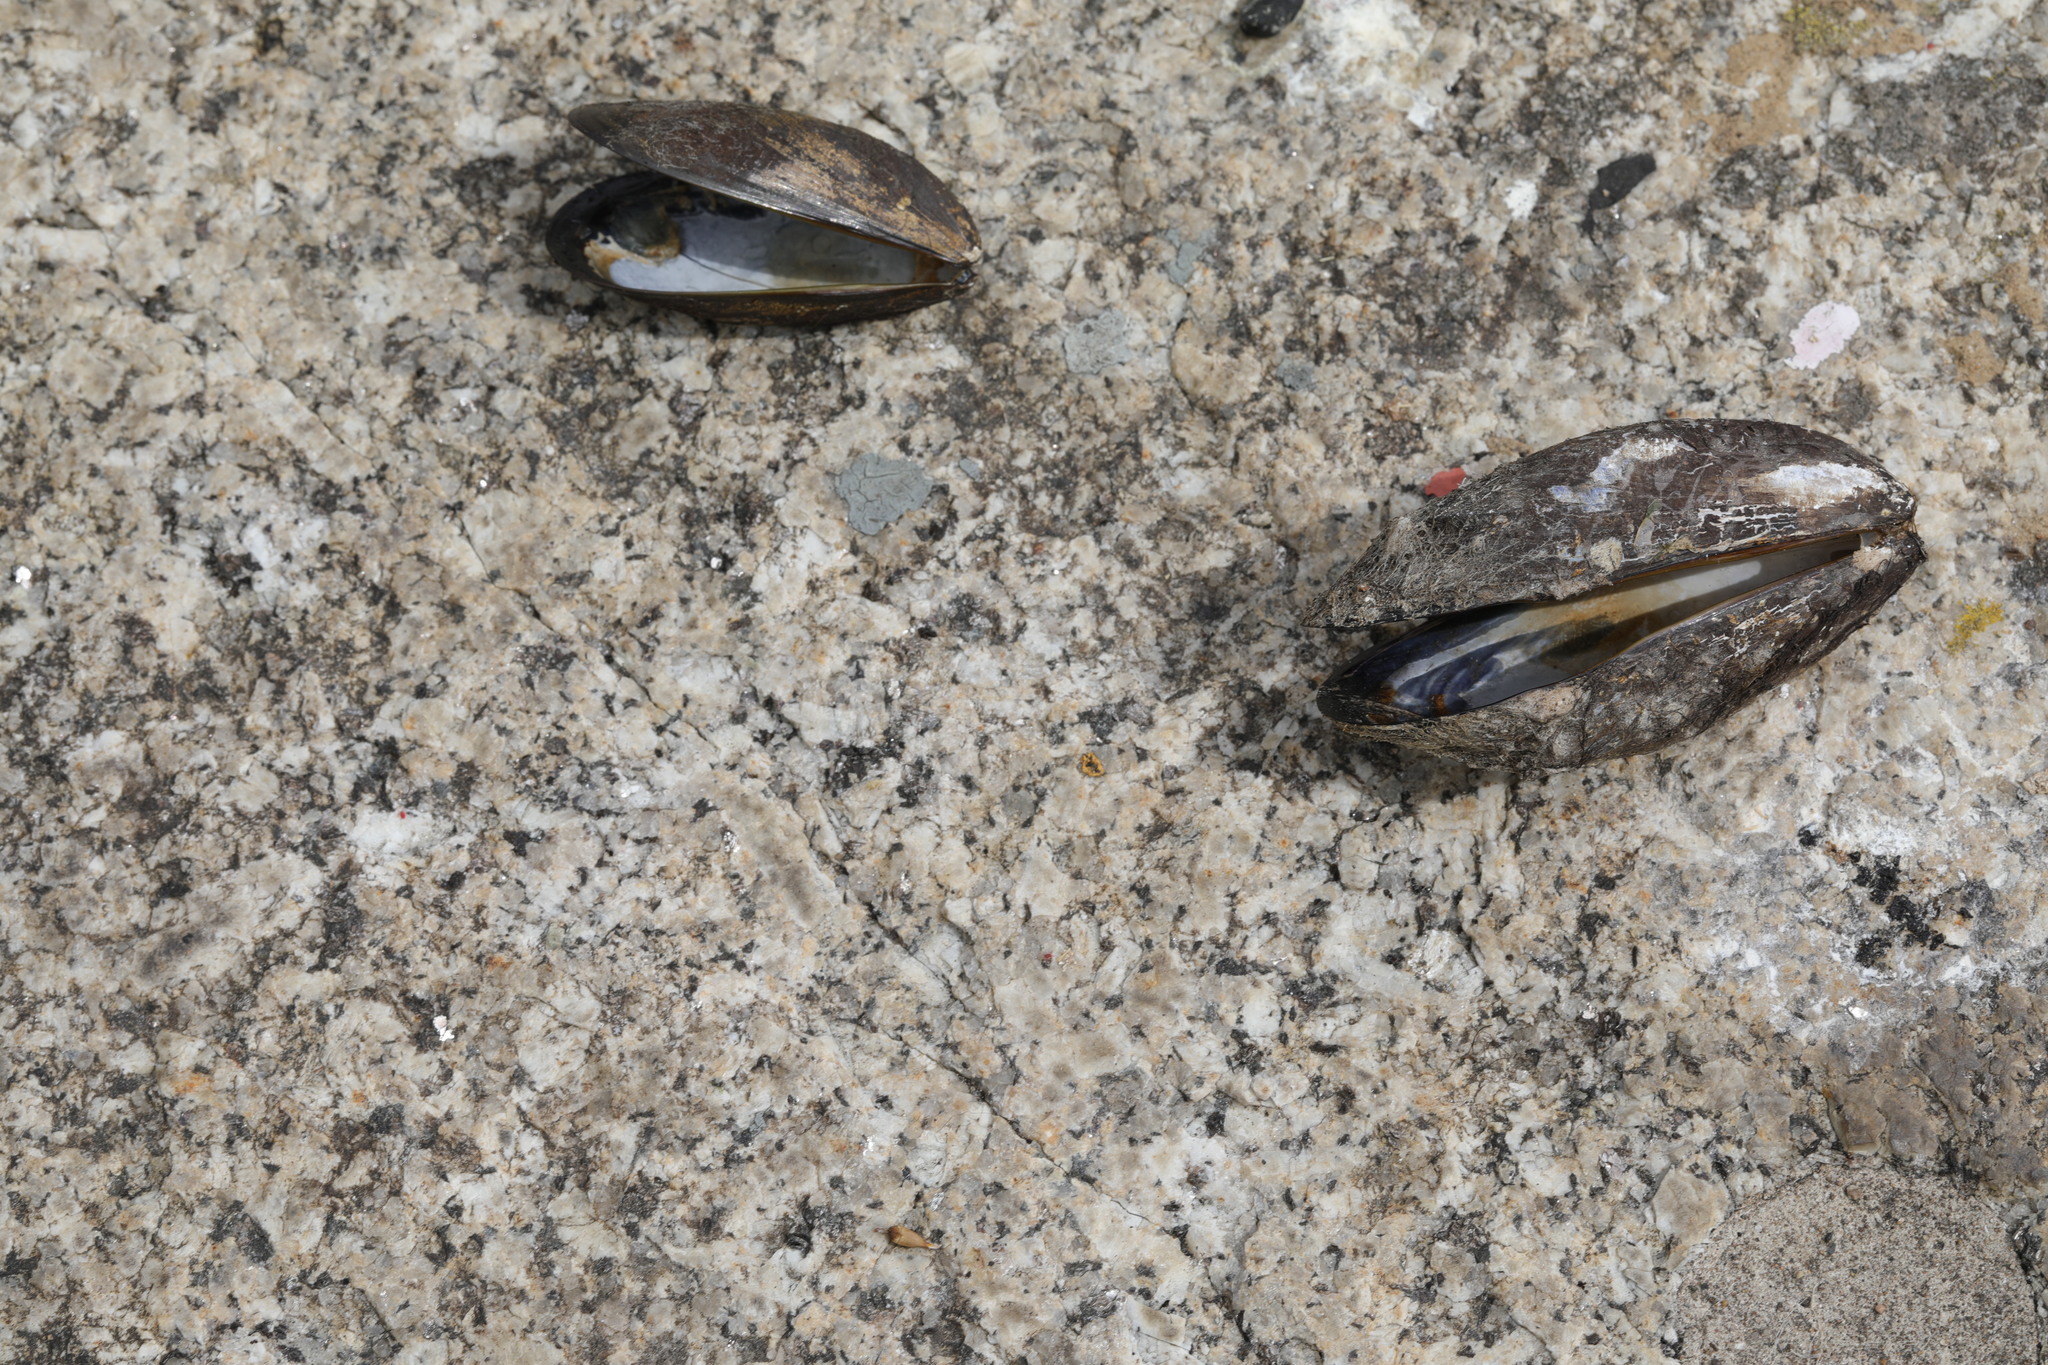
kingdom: Animalia
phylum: Mollusca
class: Bivalvia
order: Mytilida
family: Mytilidae
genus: Mytilus
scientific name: Mytilus edulis
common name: Blue mussel
